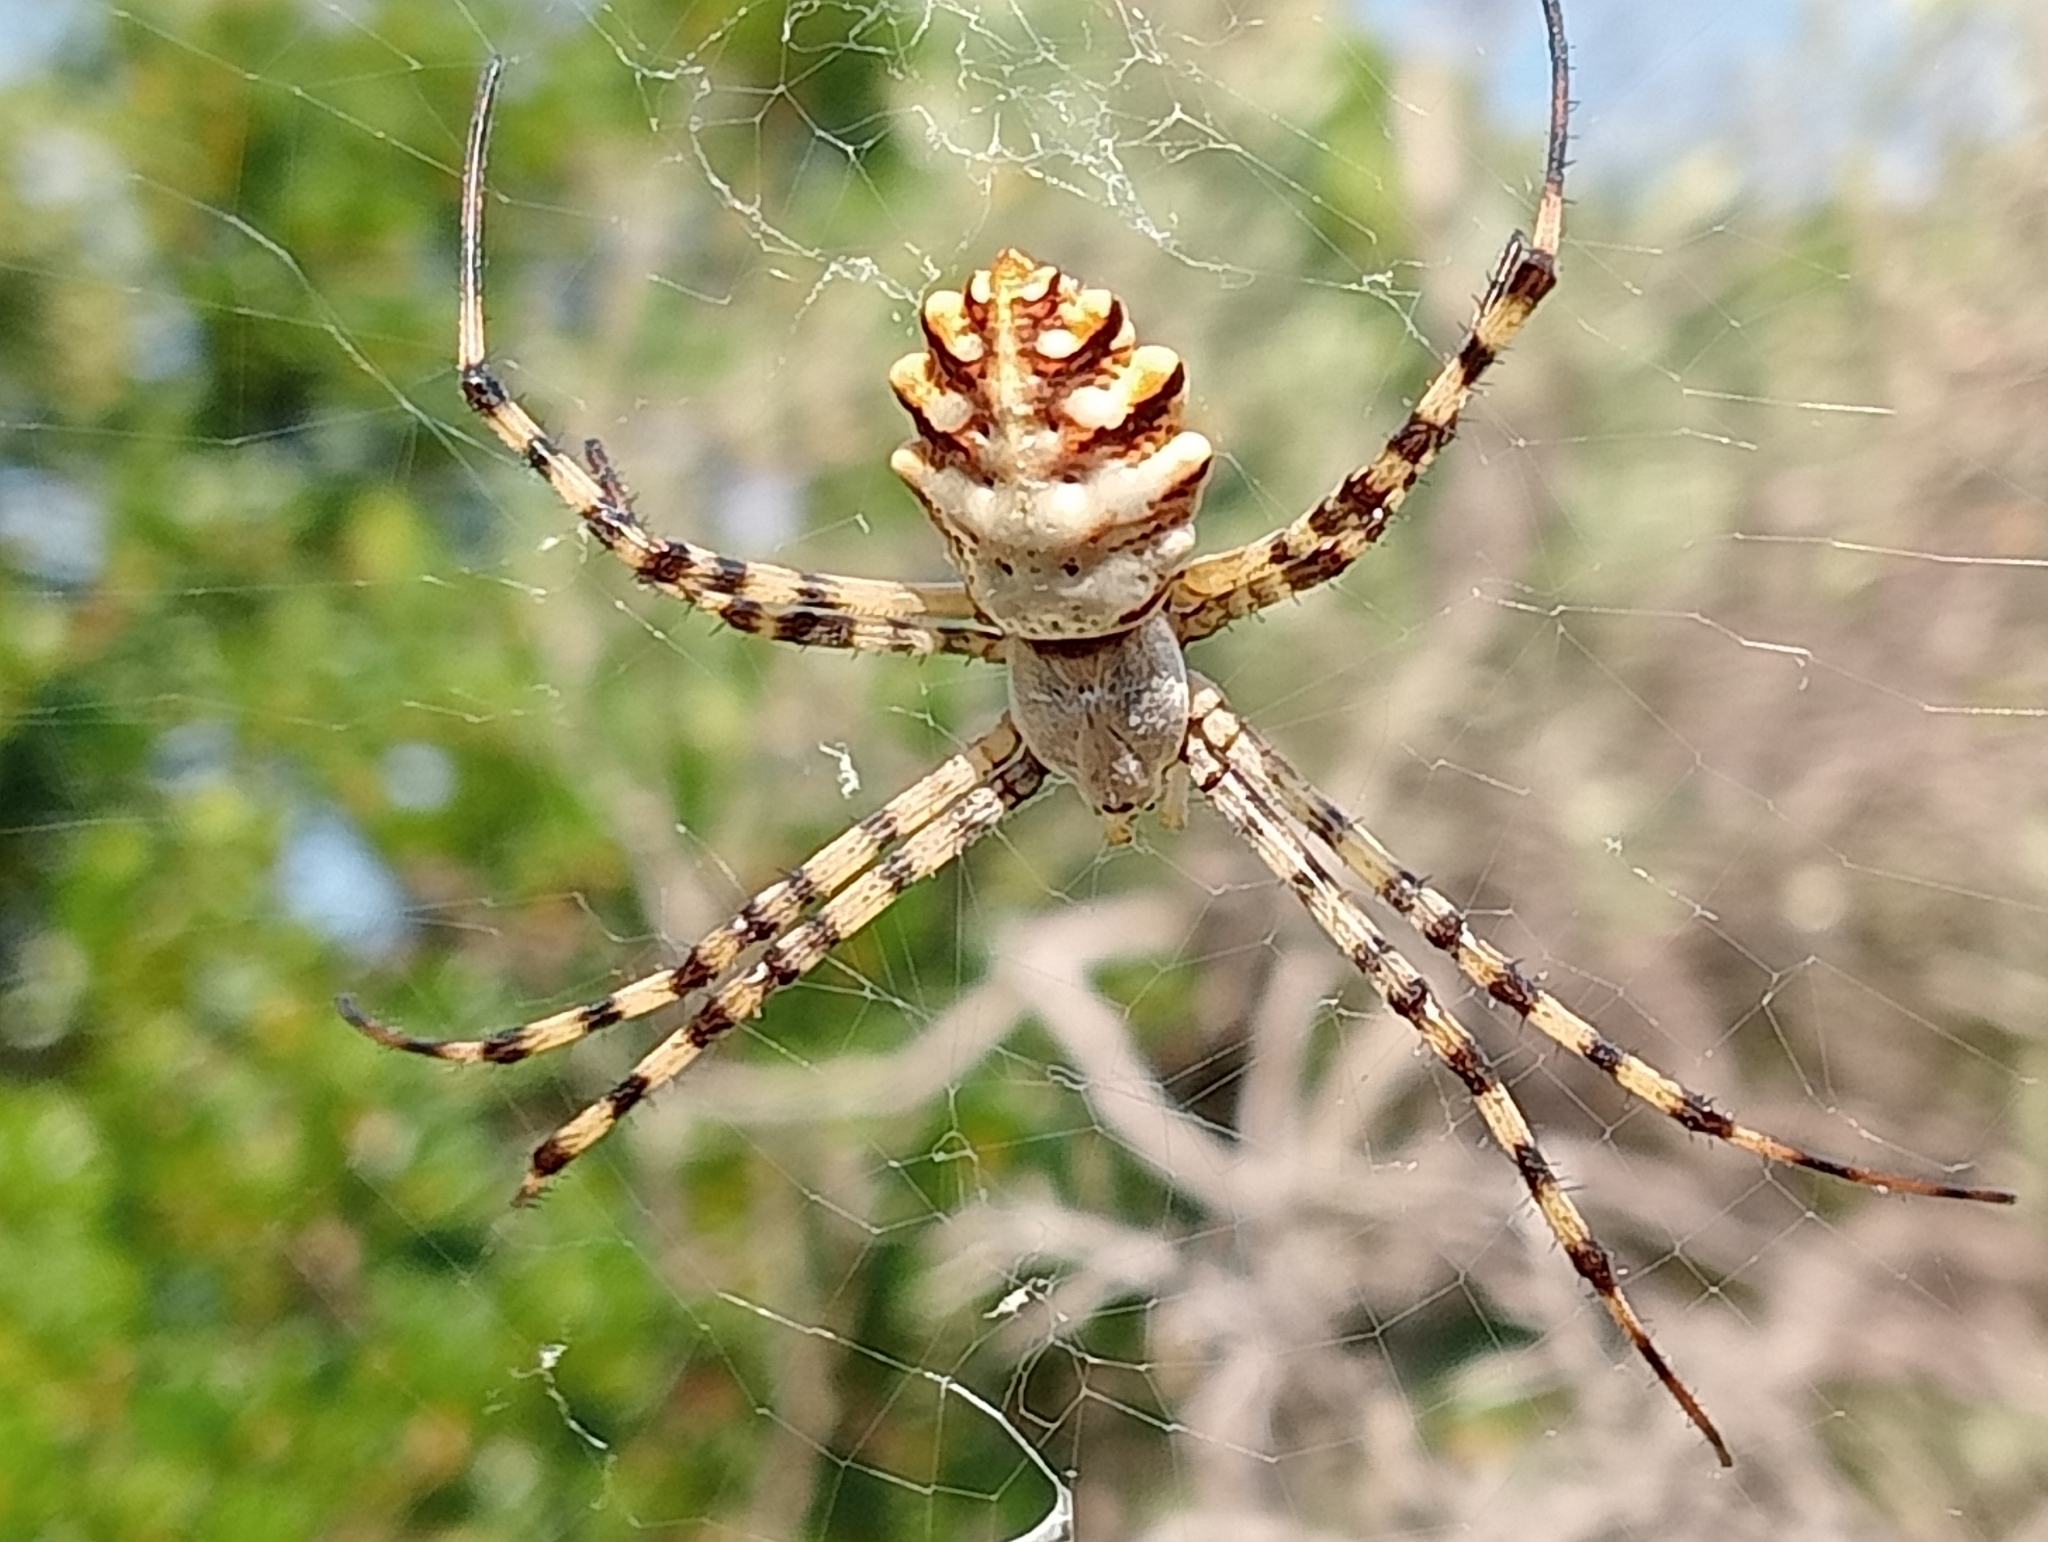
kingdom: Animalia
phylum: Arthropoda
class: Arachnida
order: Araneae
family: Araneidae
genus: Argiope
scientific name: Argiope lobata
